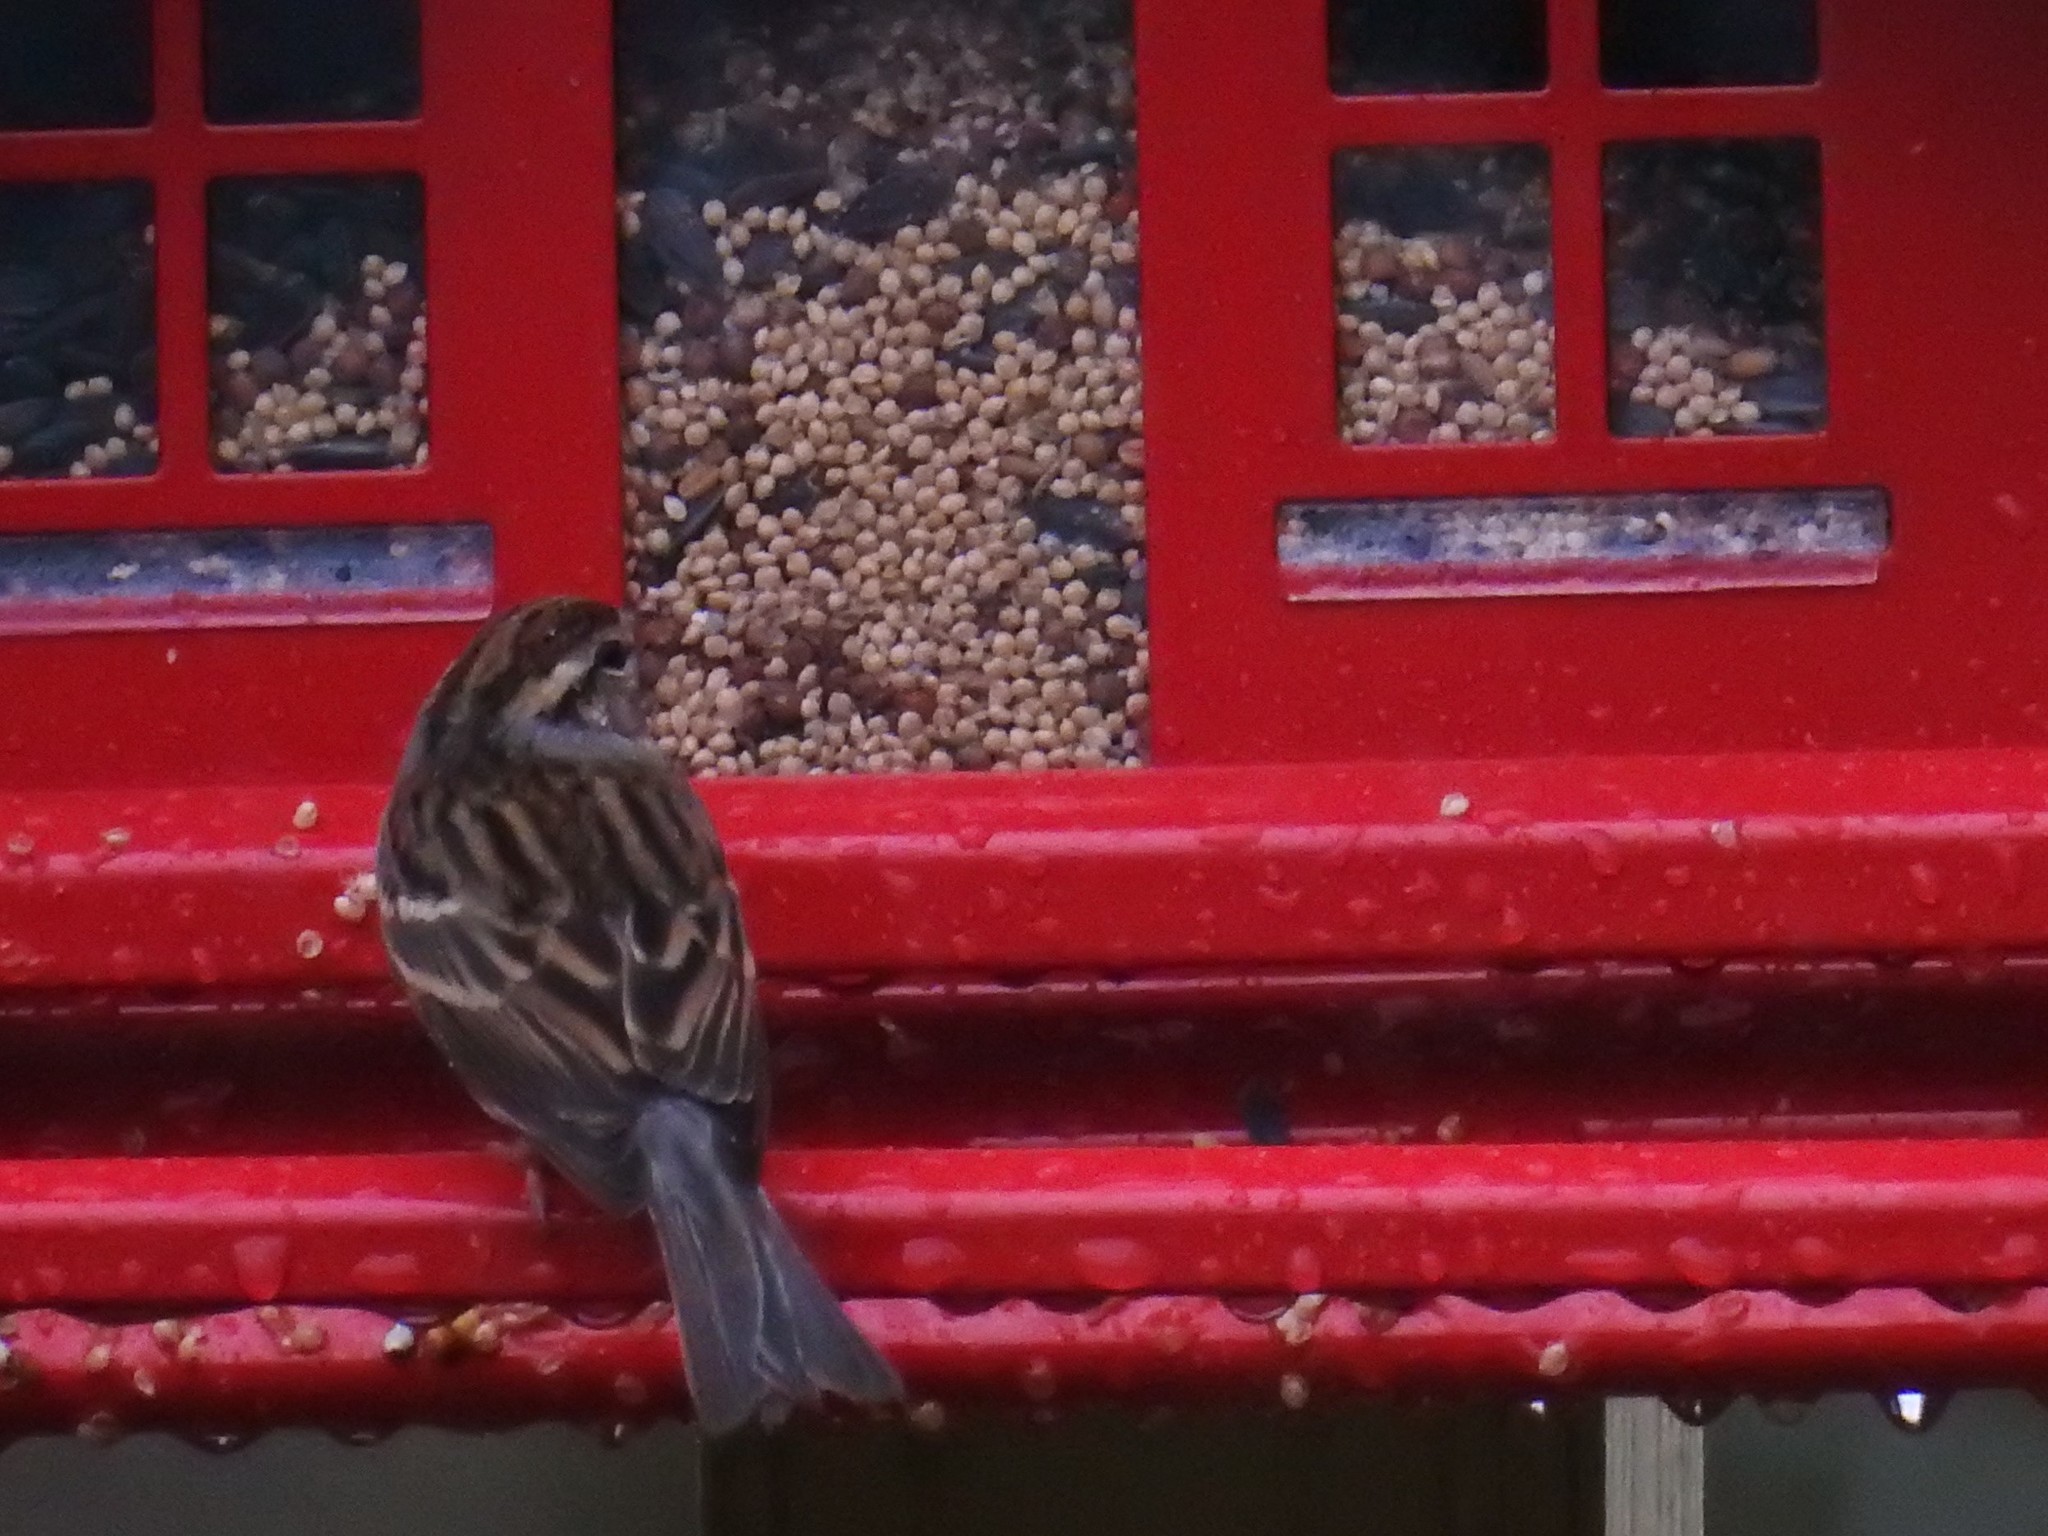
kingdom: Animalia
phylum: Chordata
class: Aves
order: Passeriformes
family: Passerellidae
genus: Spizella
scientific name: Spizella passerina
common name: Chipping sparrow
